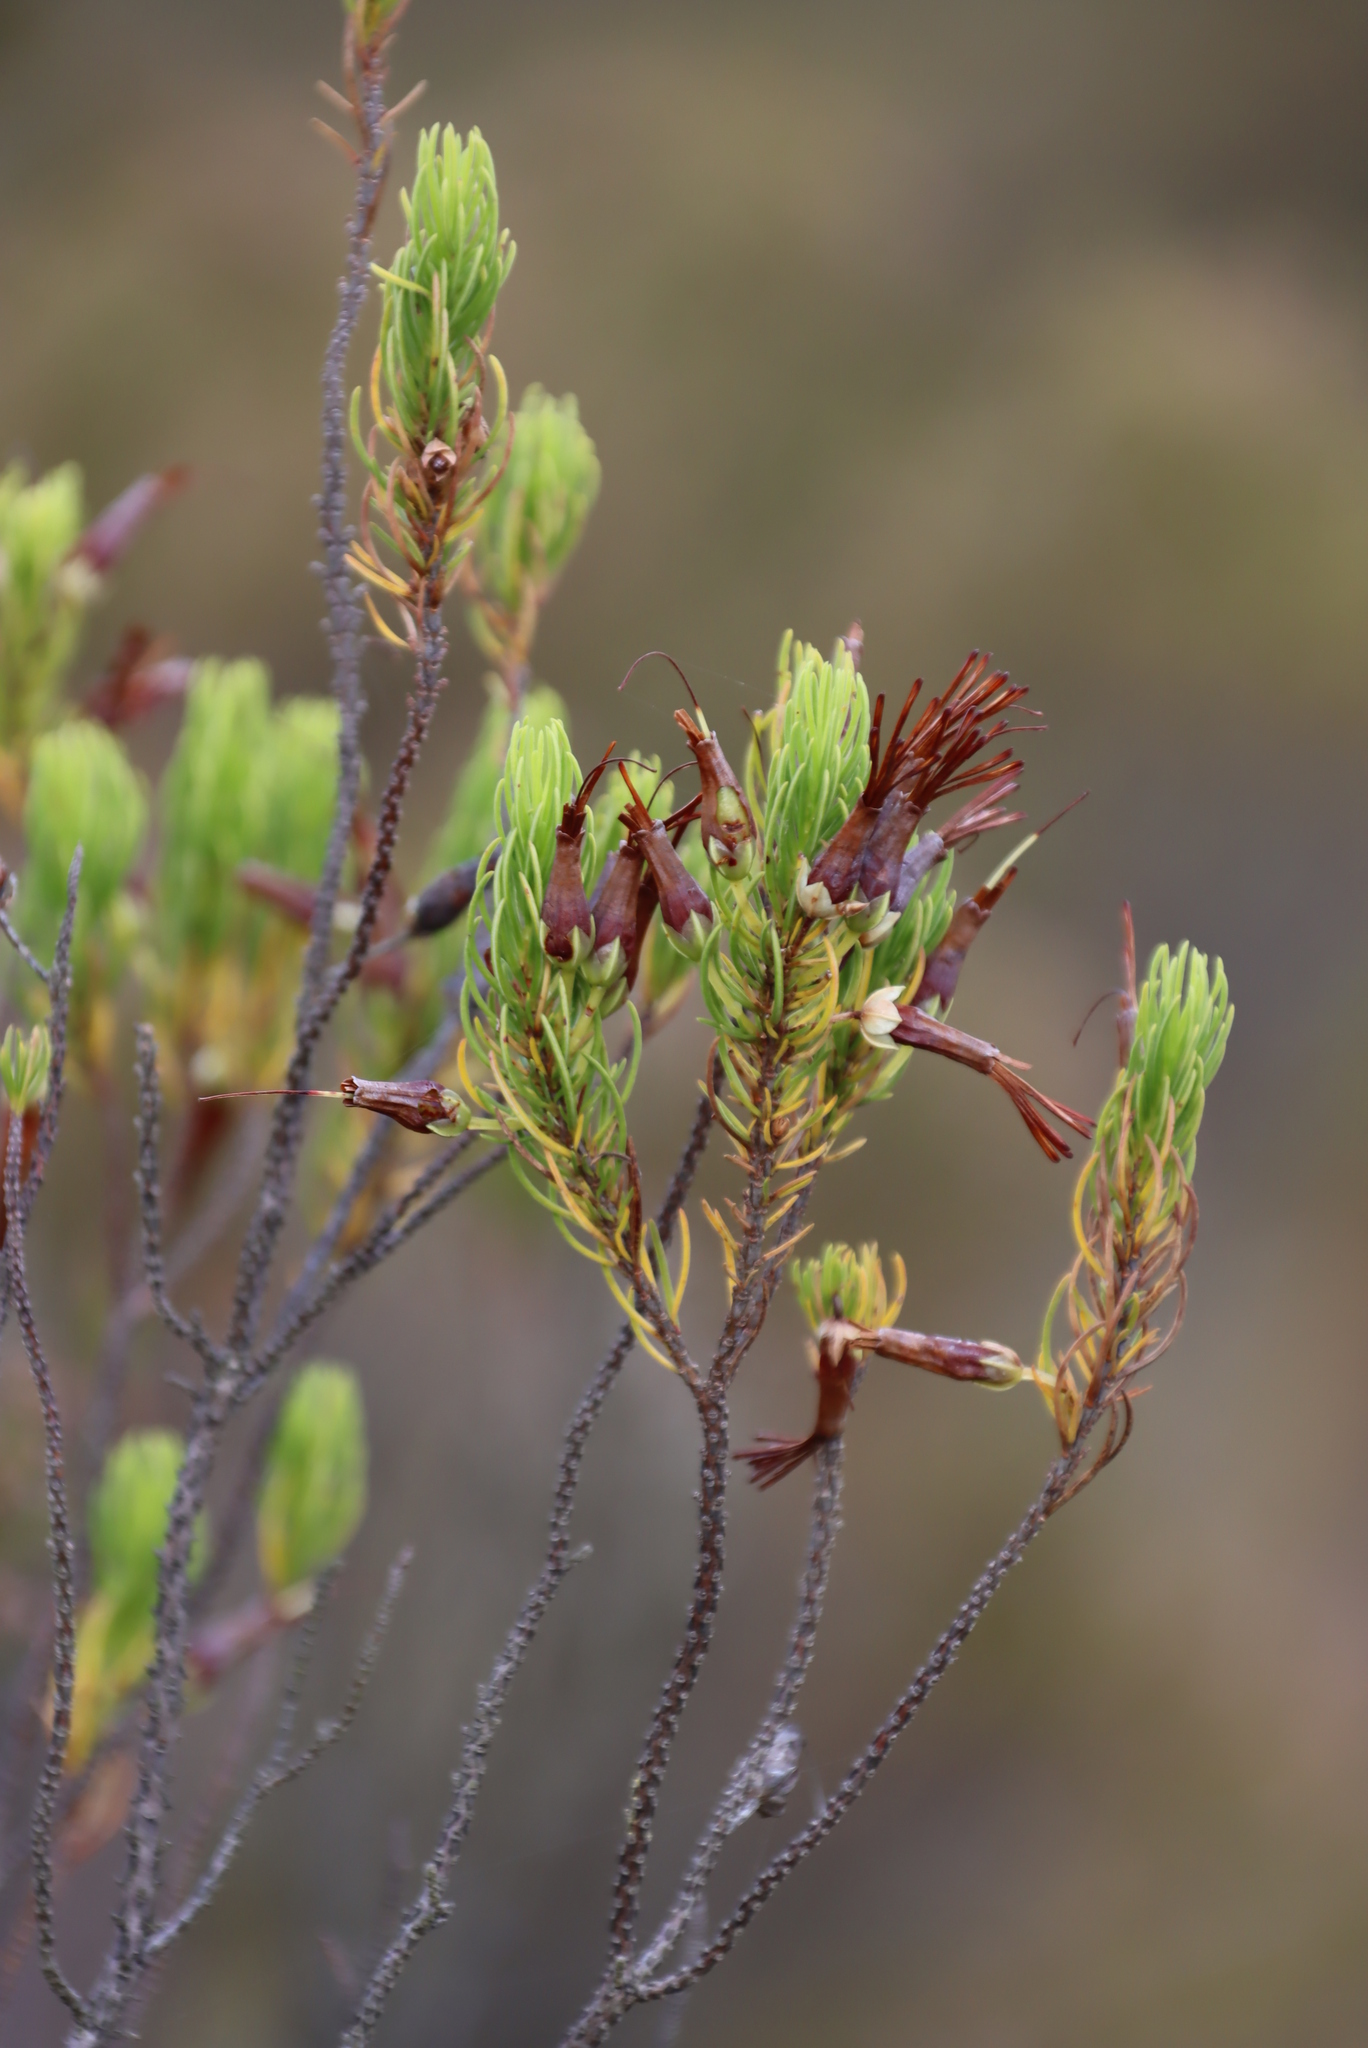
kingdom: Plantae
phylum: Tracheophyta
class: Magnoliopsida
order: Ericales
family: Ericaceae
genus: Erica
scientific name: Erica plukenetii
